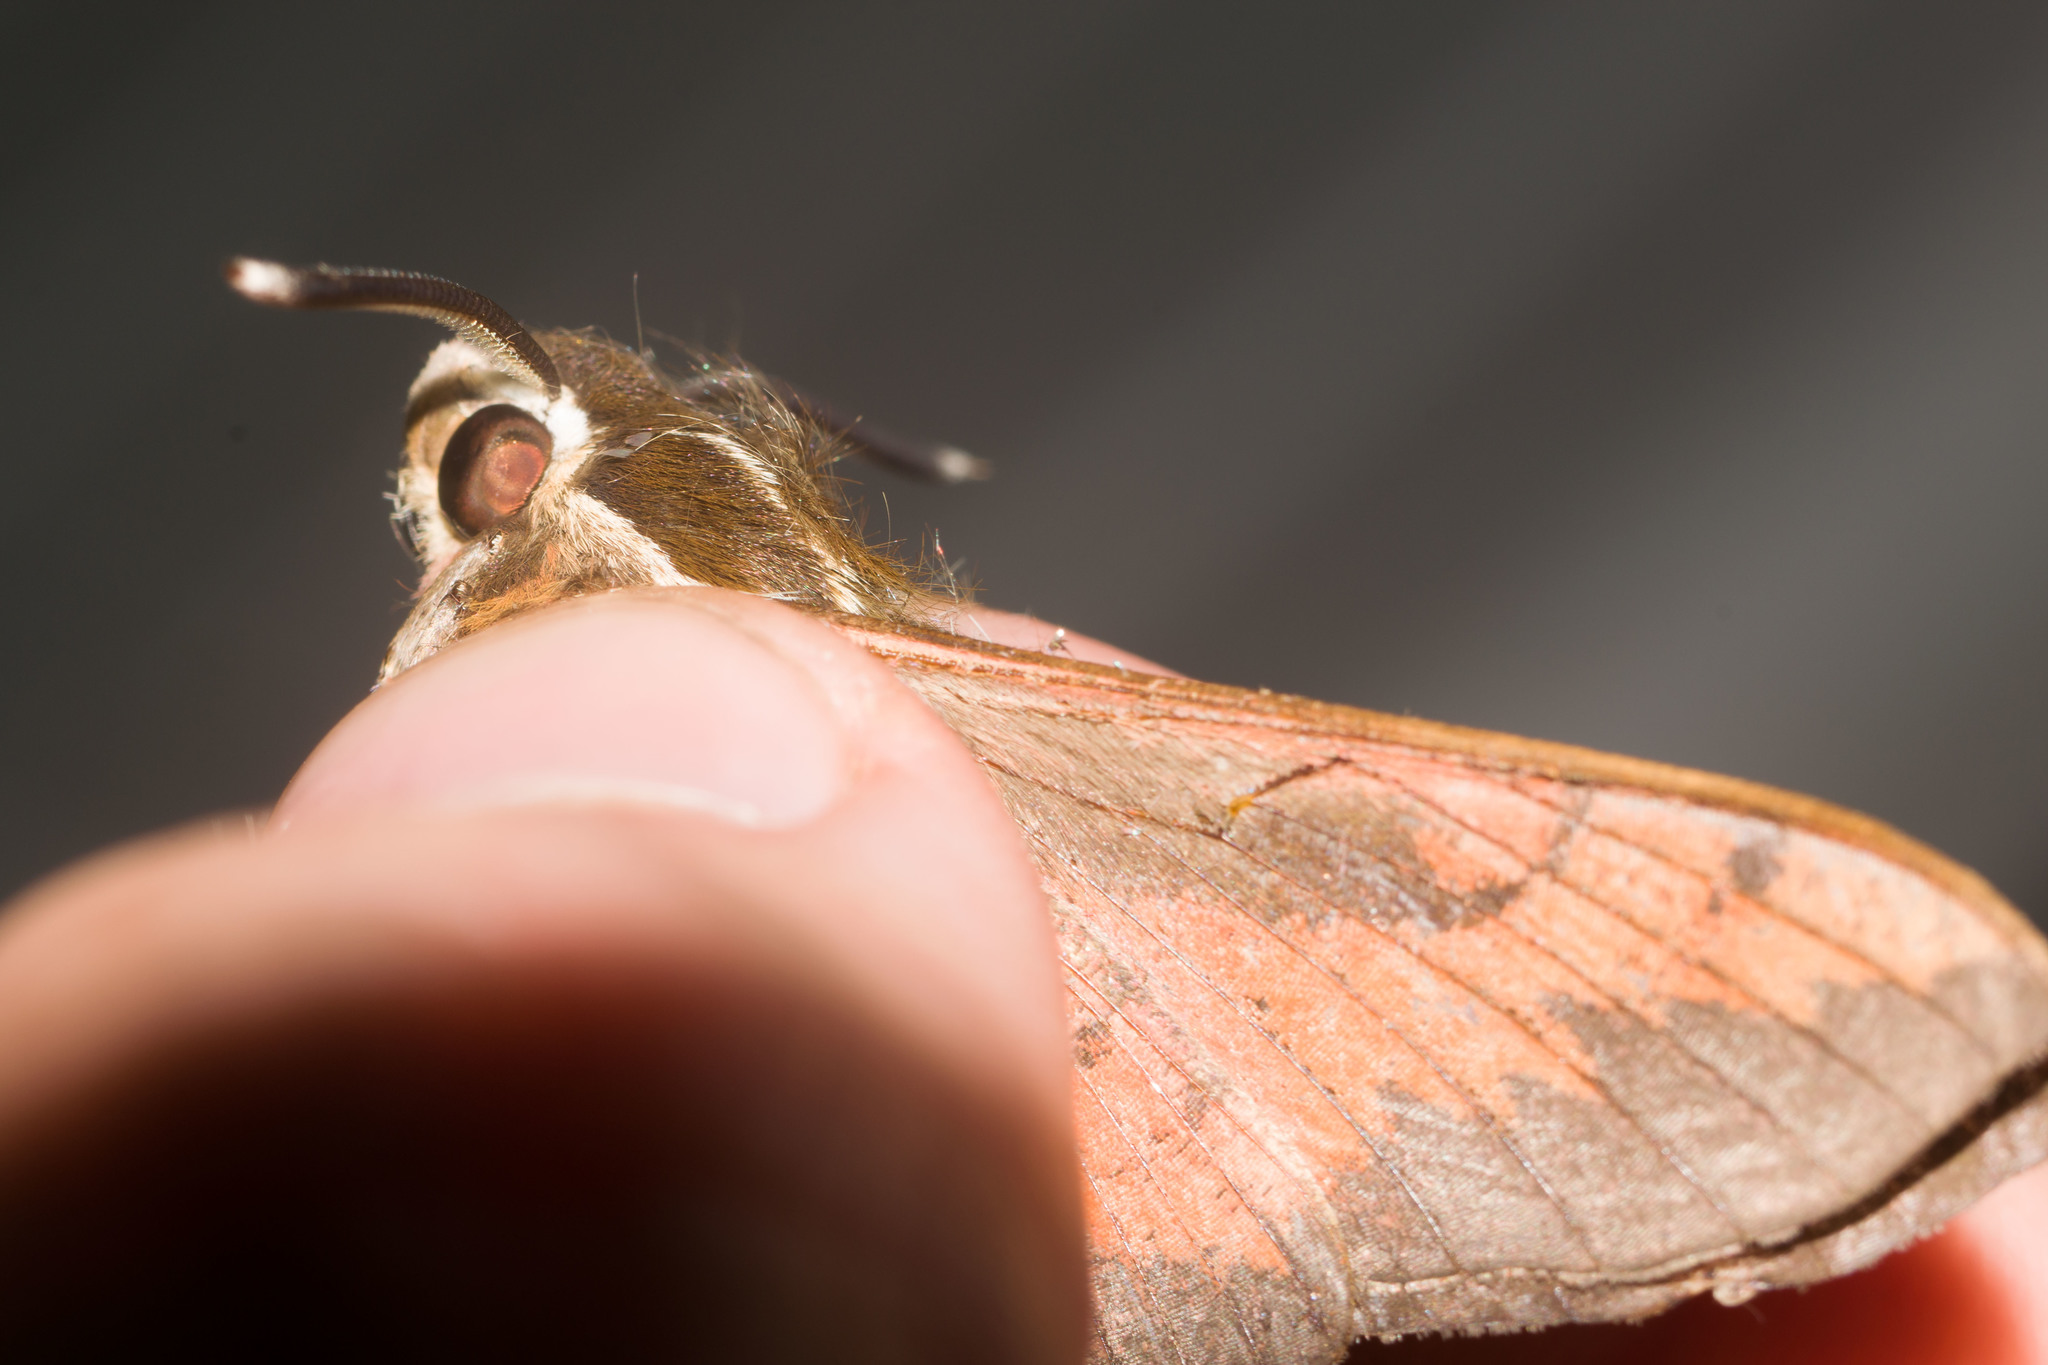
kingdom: Animalia
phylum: Arthropoda
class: Insecta
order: Lepidoptera
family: Sphingidae
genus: Hyles
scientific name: Hyles calida
